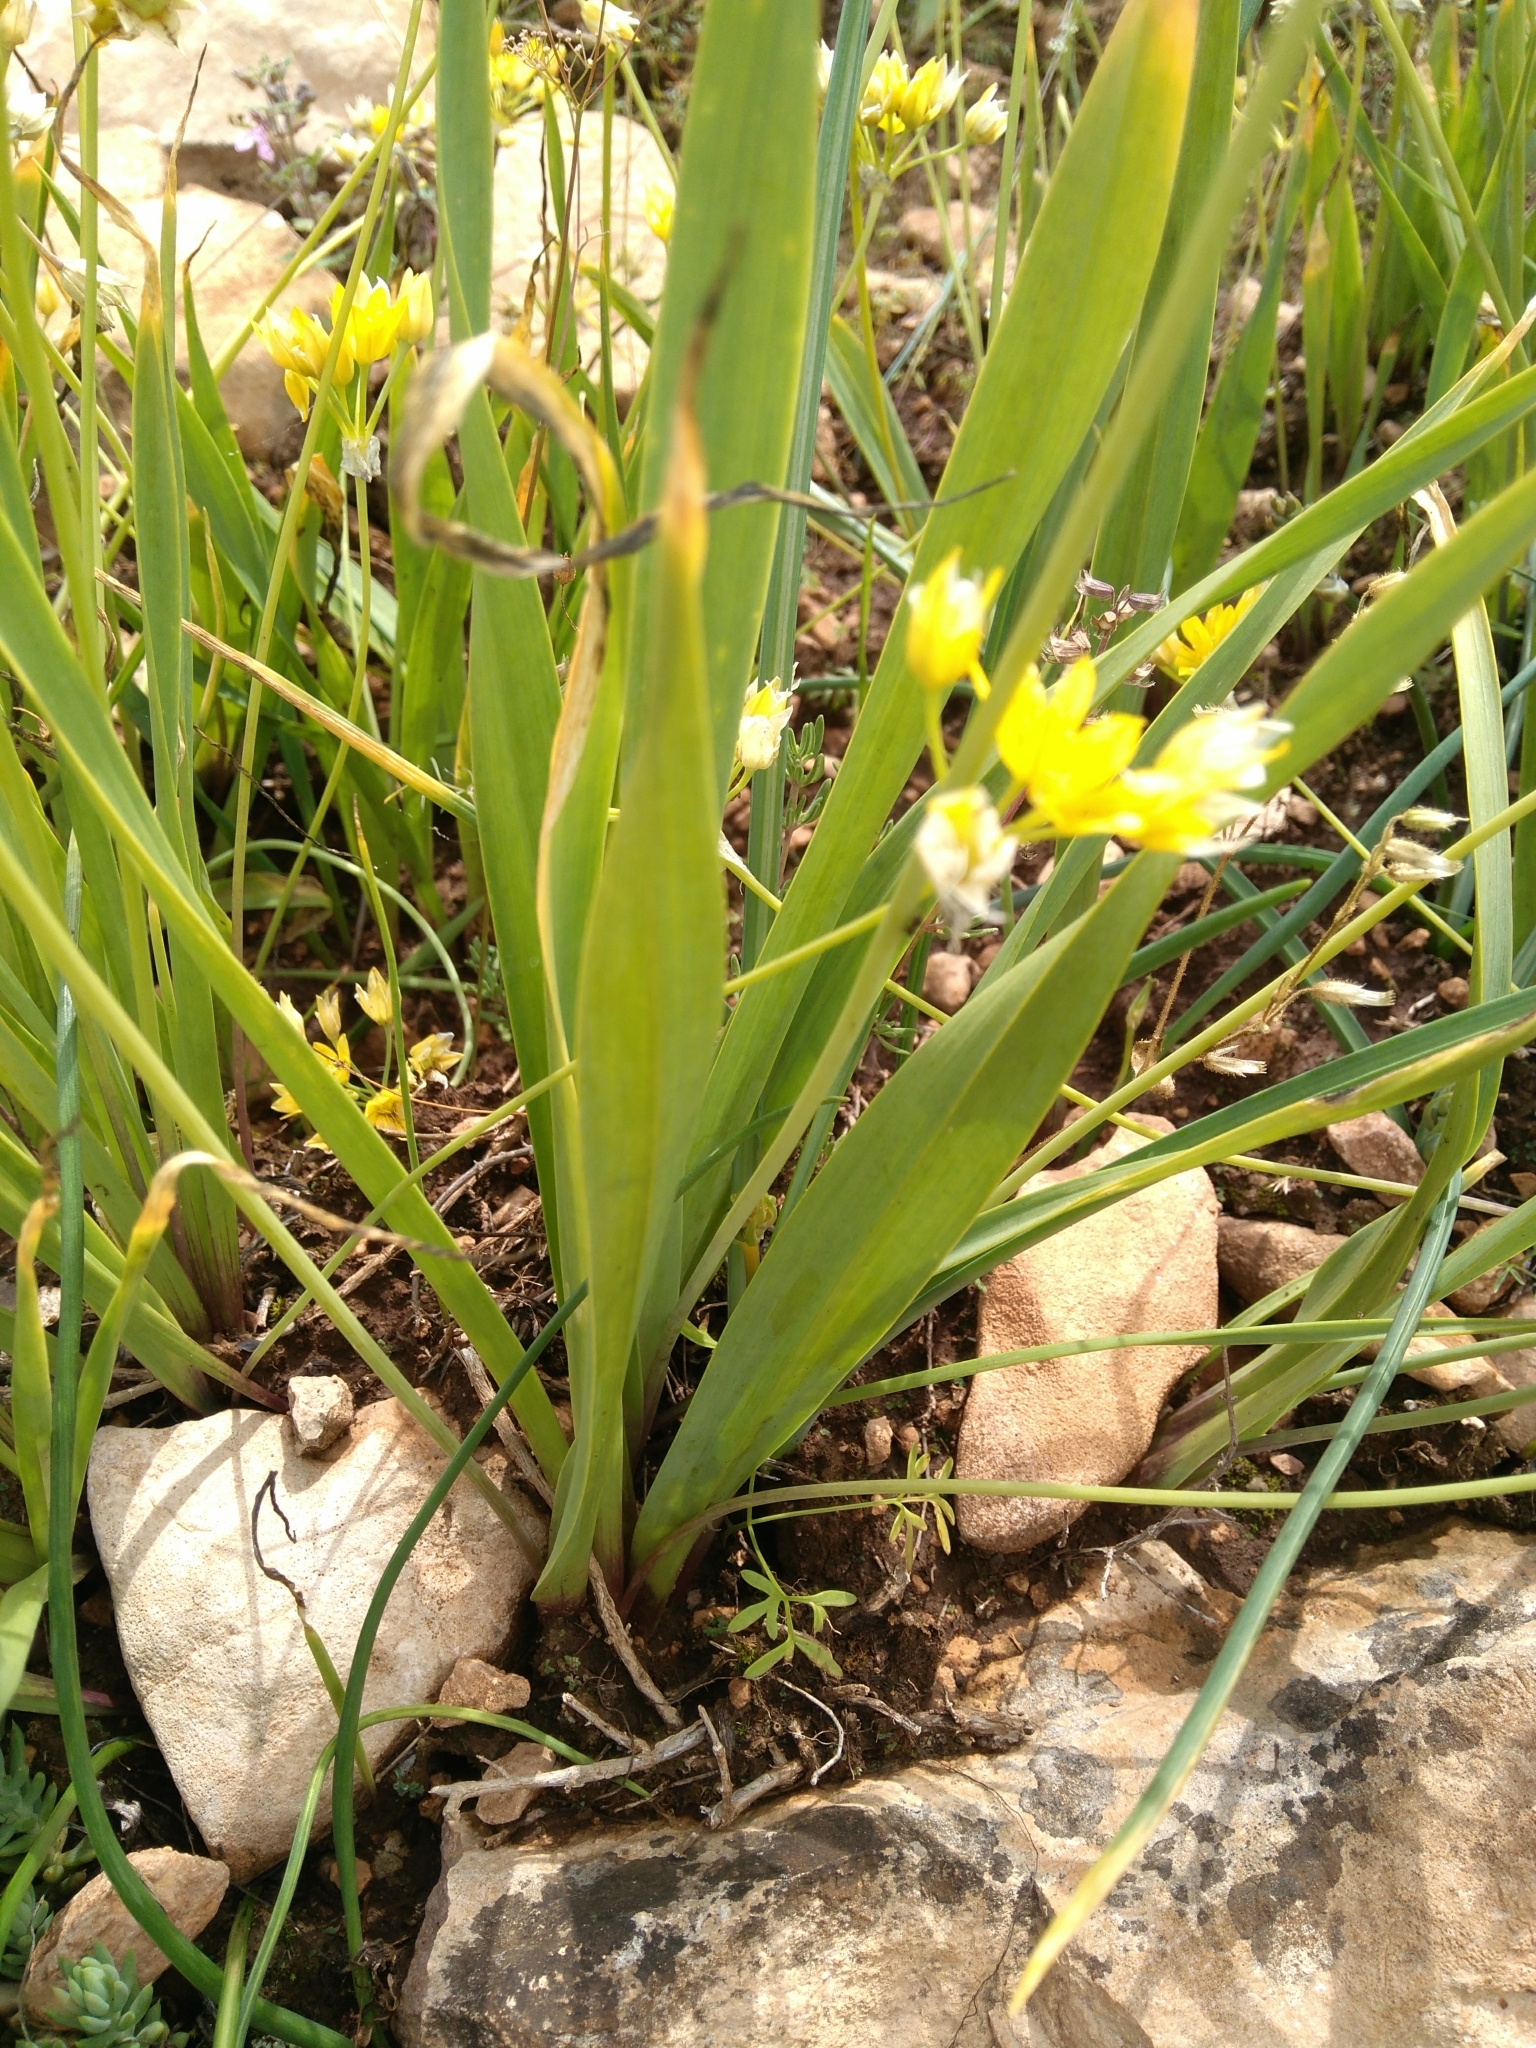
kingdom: Plantae
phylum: Tracheophyta
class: Liliopsida
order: Asparagales
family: Amaryllidaceae
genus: Allium
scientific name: Allium moly
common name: Yellow garlic
